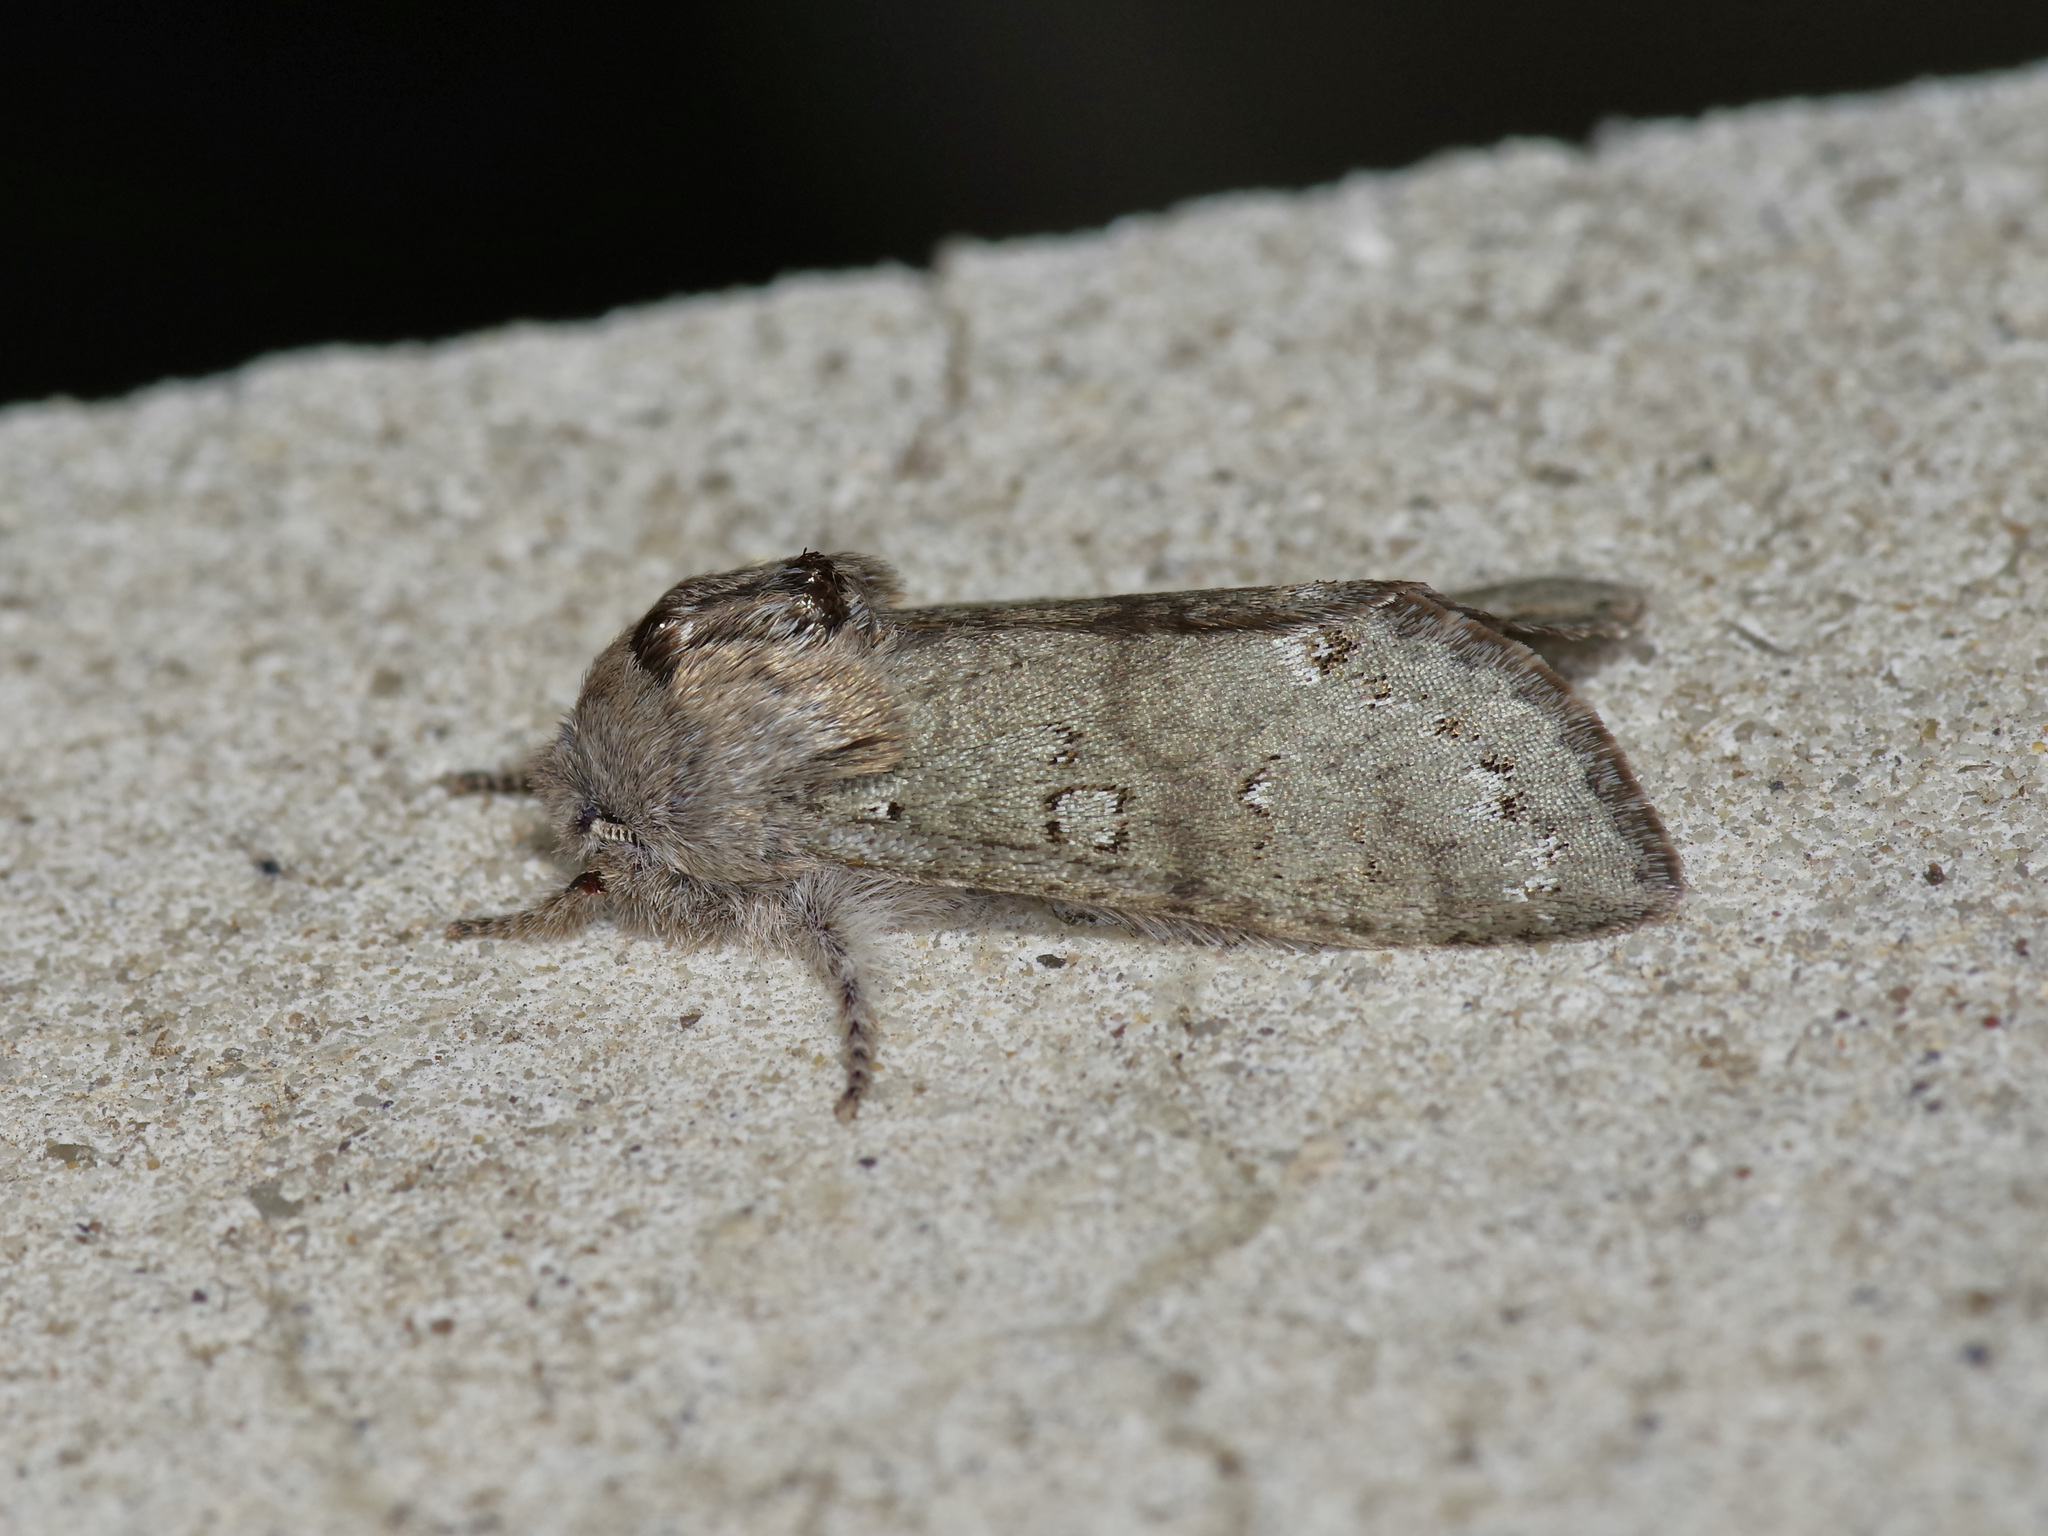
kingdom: Animalia
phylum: Arthropoda
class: Insecta
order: Lepidoptera
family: Noctuidae
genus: Psaphida
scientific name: Psaphida rolandi
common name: Roland's sallow
